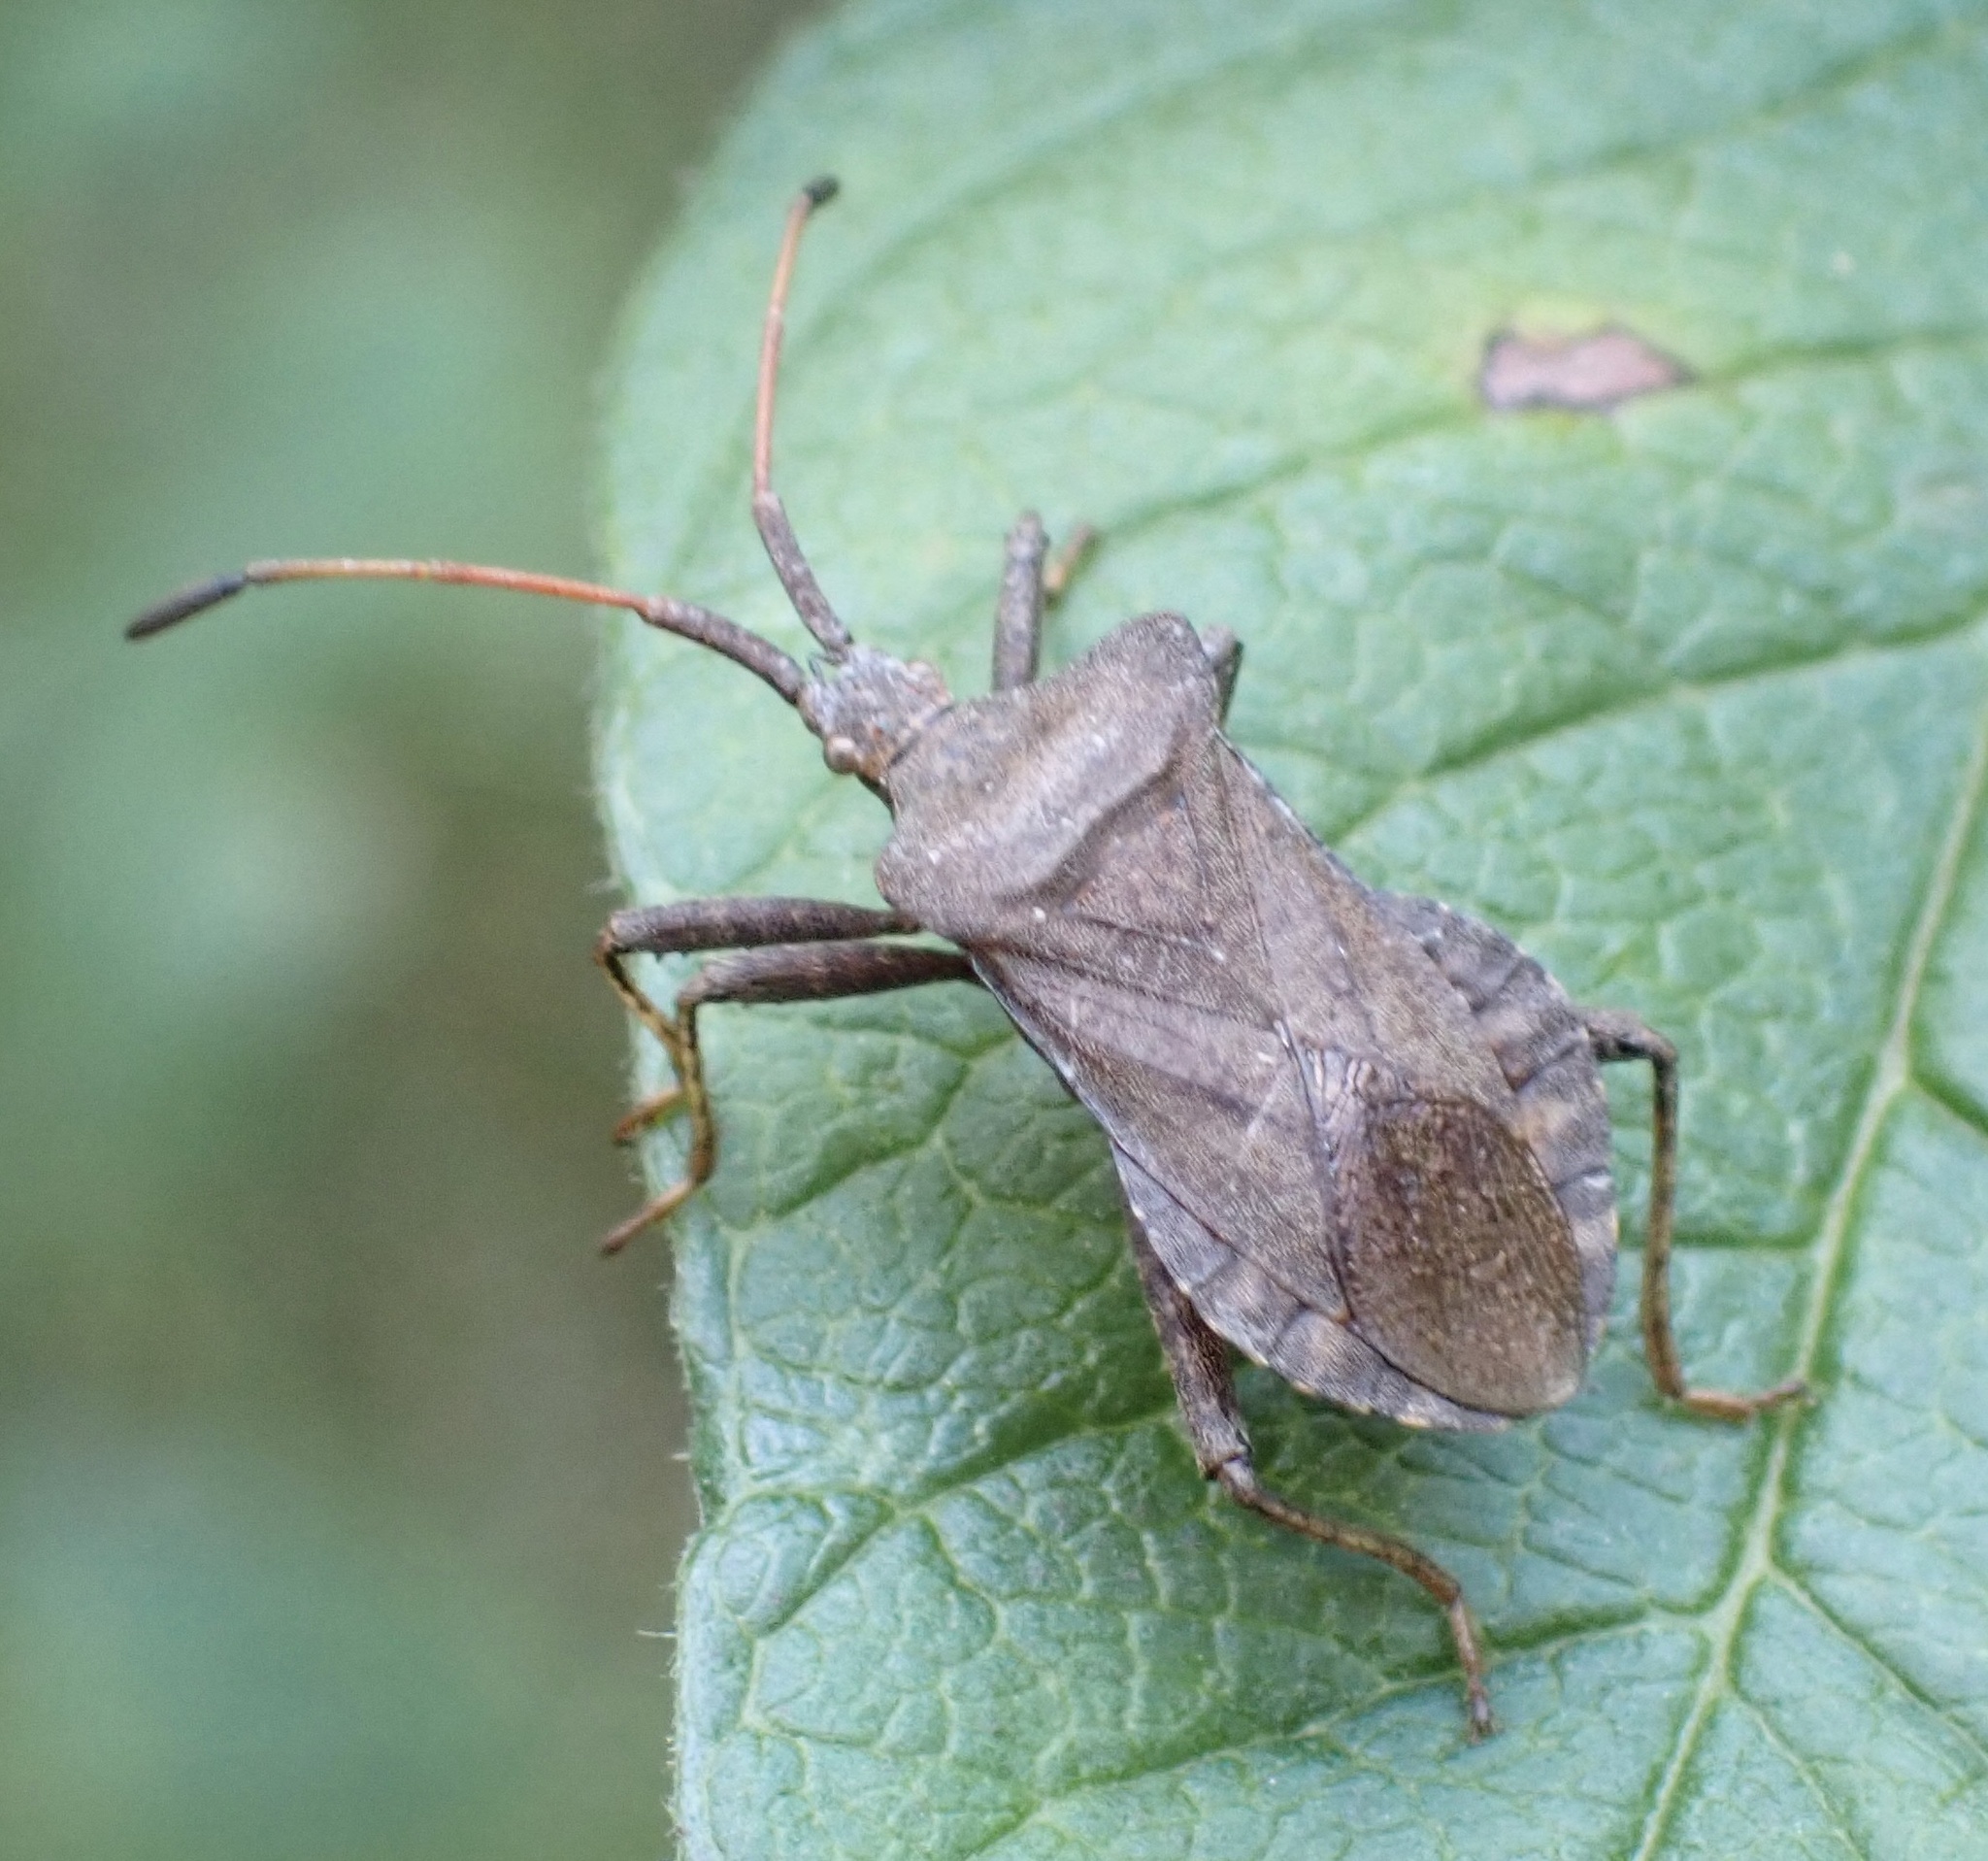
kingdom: Animalia
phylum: Arthropoda
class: Insecta
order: Hemiptera
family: Coreidae
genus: Coreus
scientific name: Coreus marginatus
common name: Dock bug
